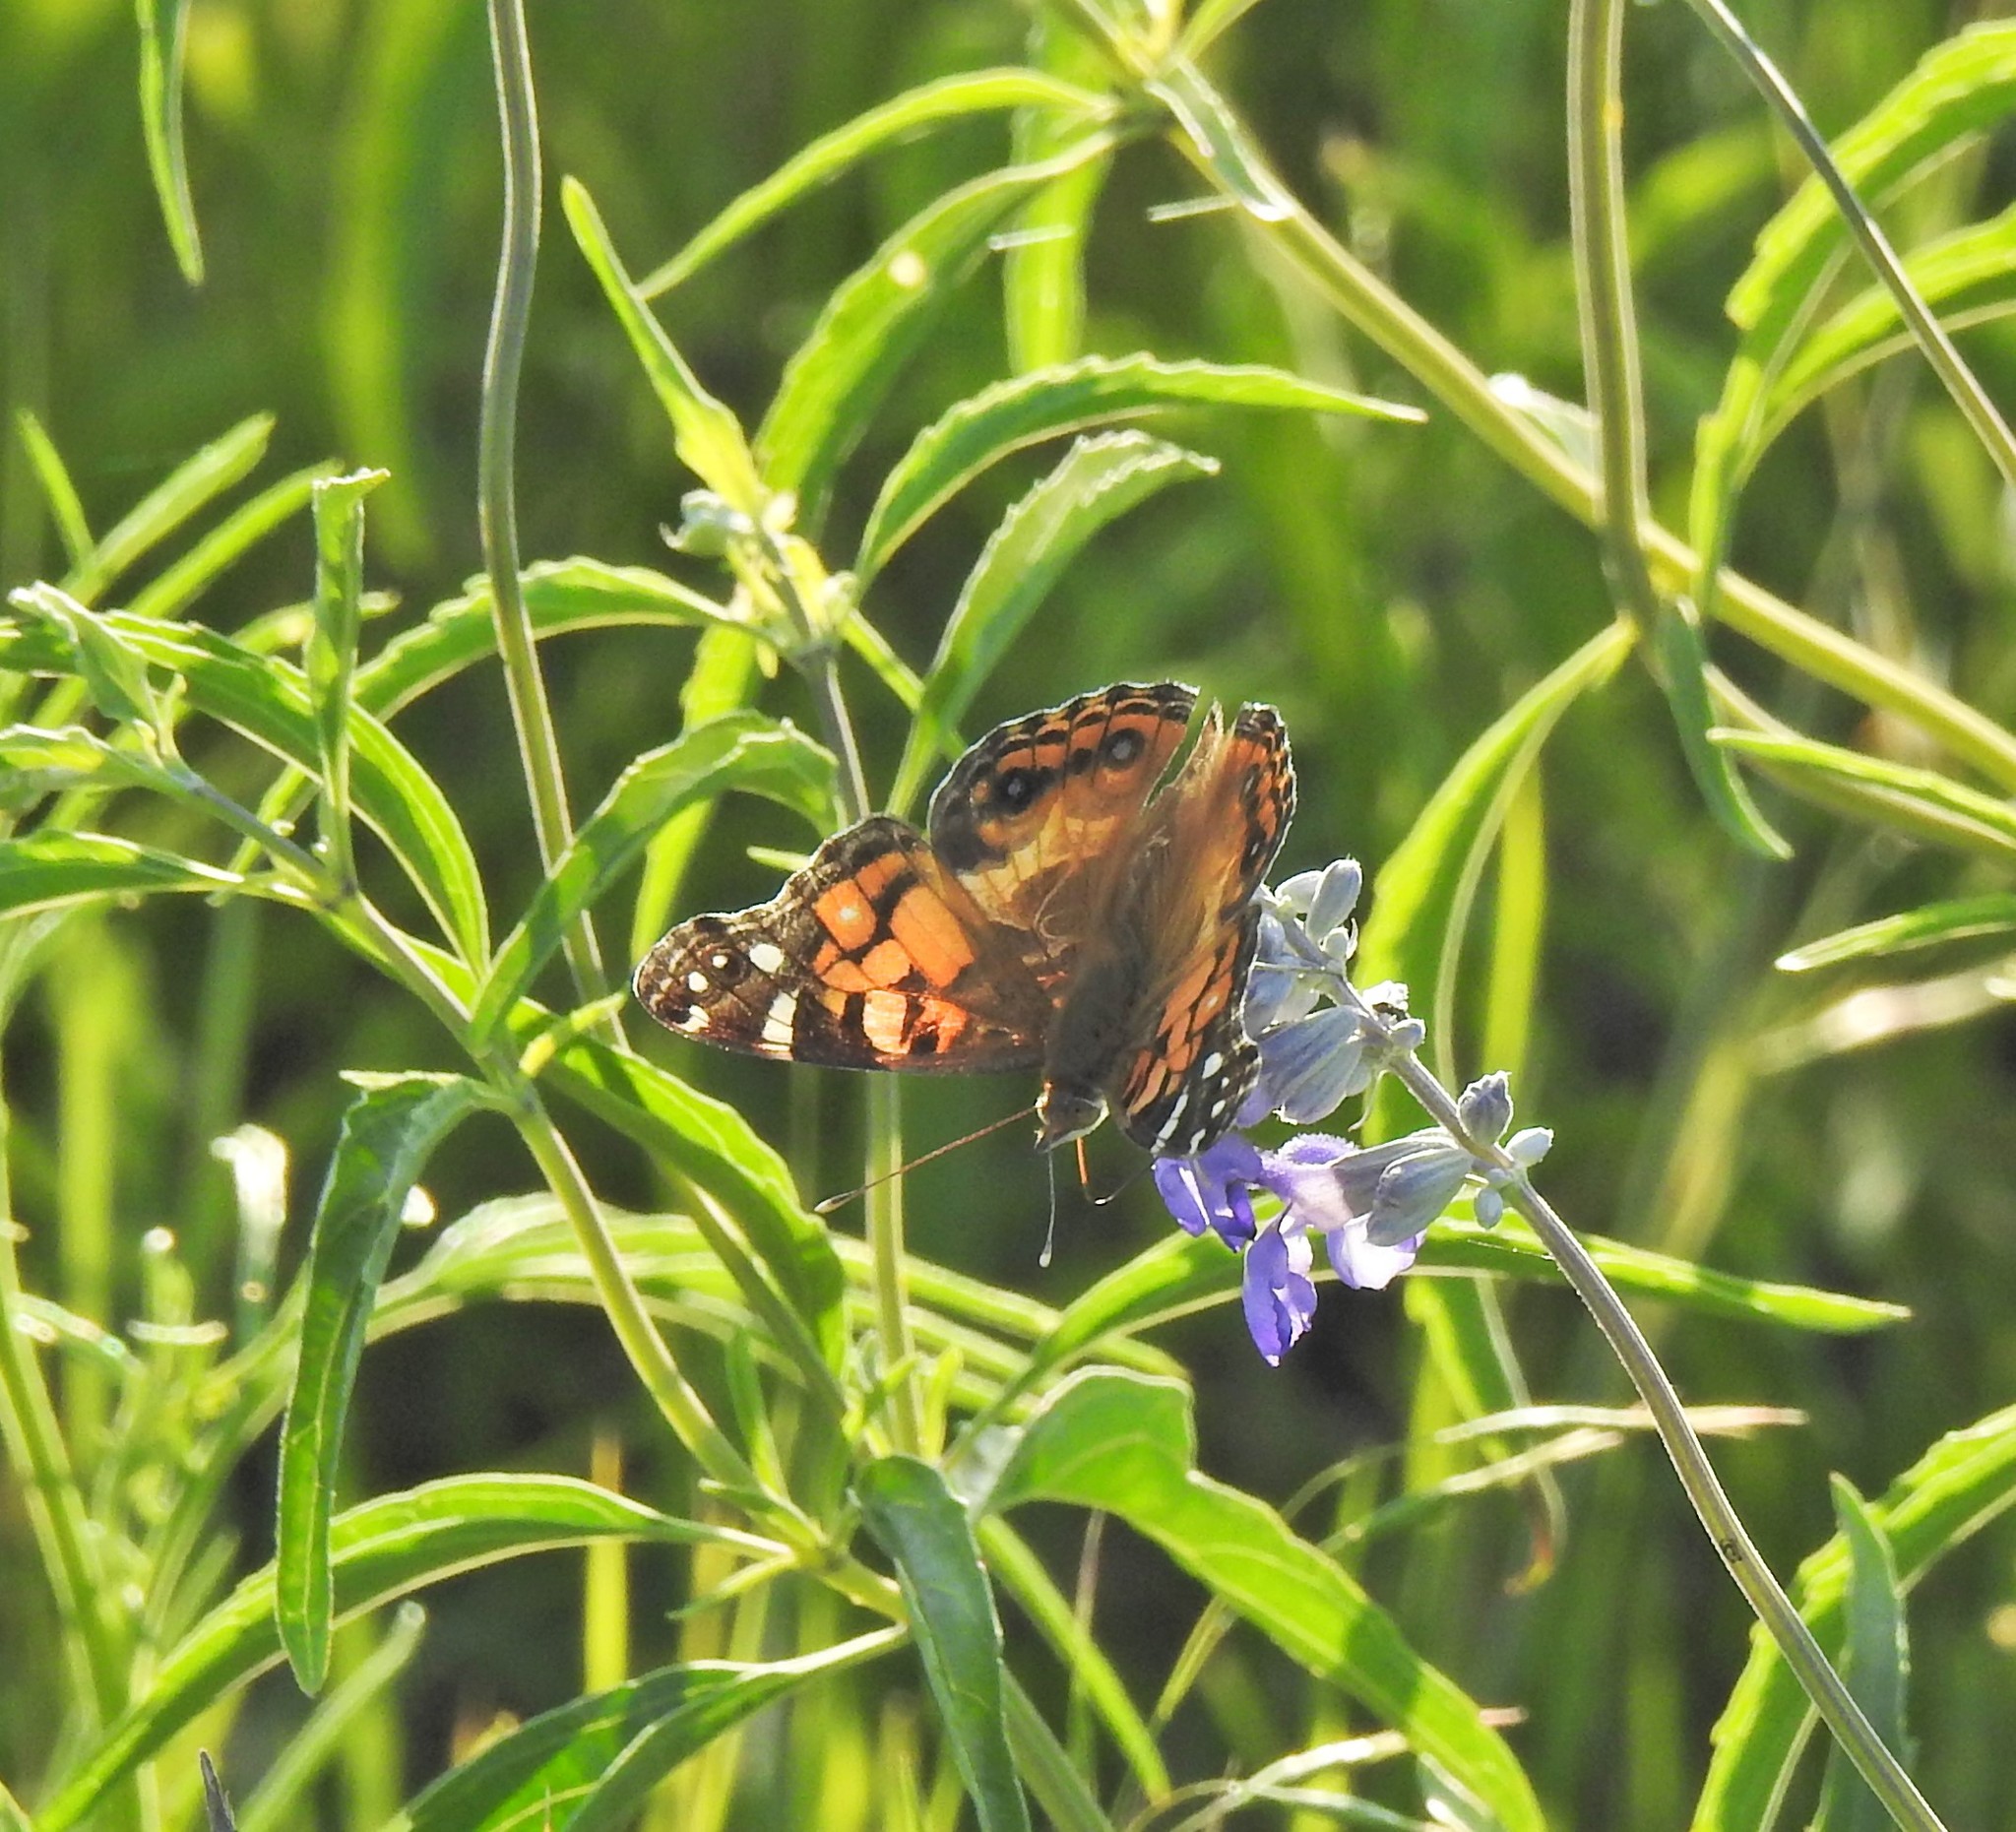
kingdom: Animalia
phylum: Arthropoda
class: Insecta
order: Lepidoptera
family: Nymphalidae
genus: Vanessa
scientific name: Vanessa virginiensis
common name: American lady
